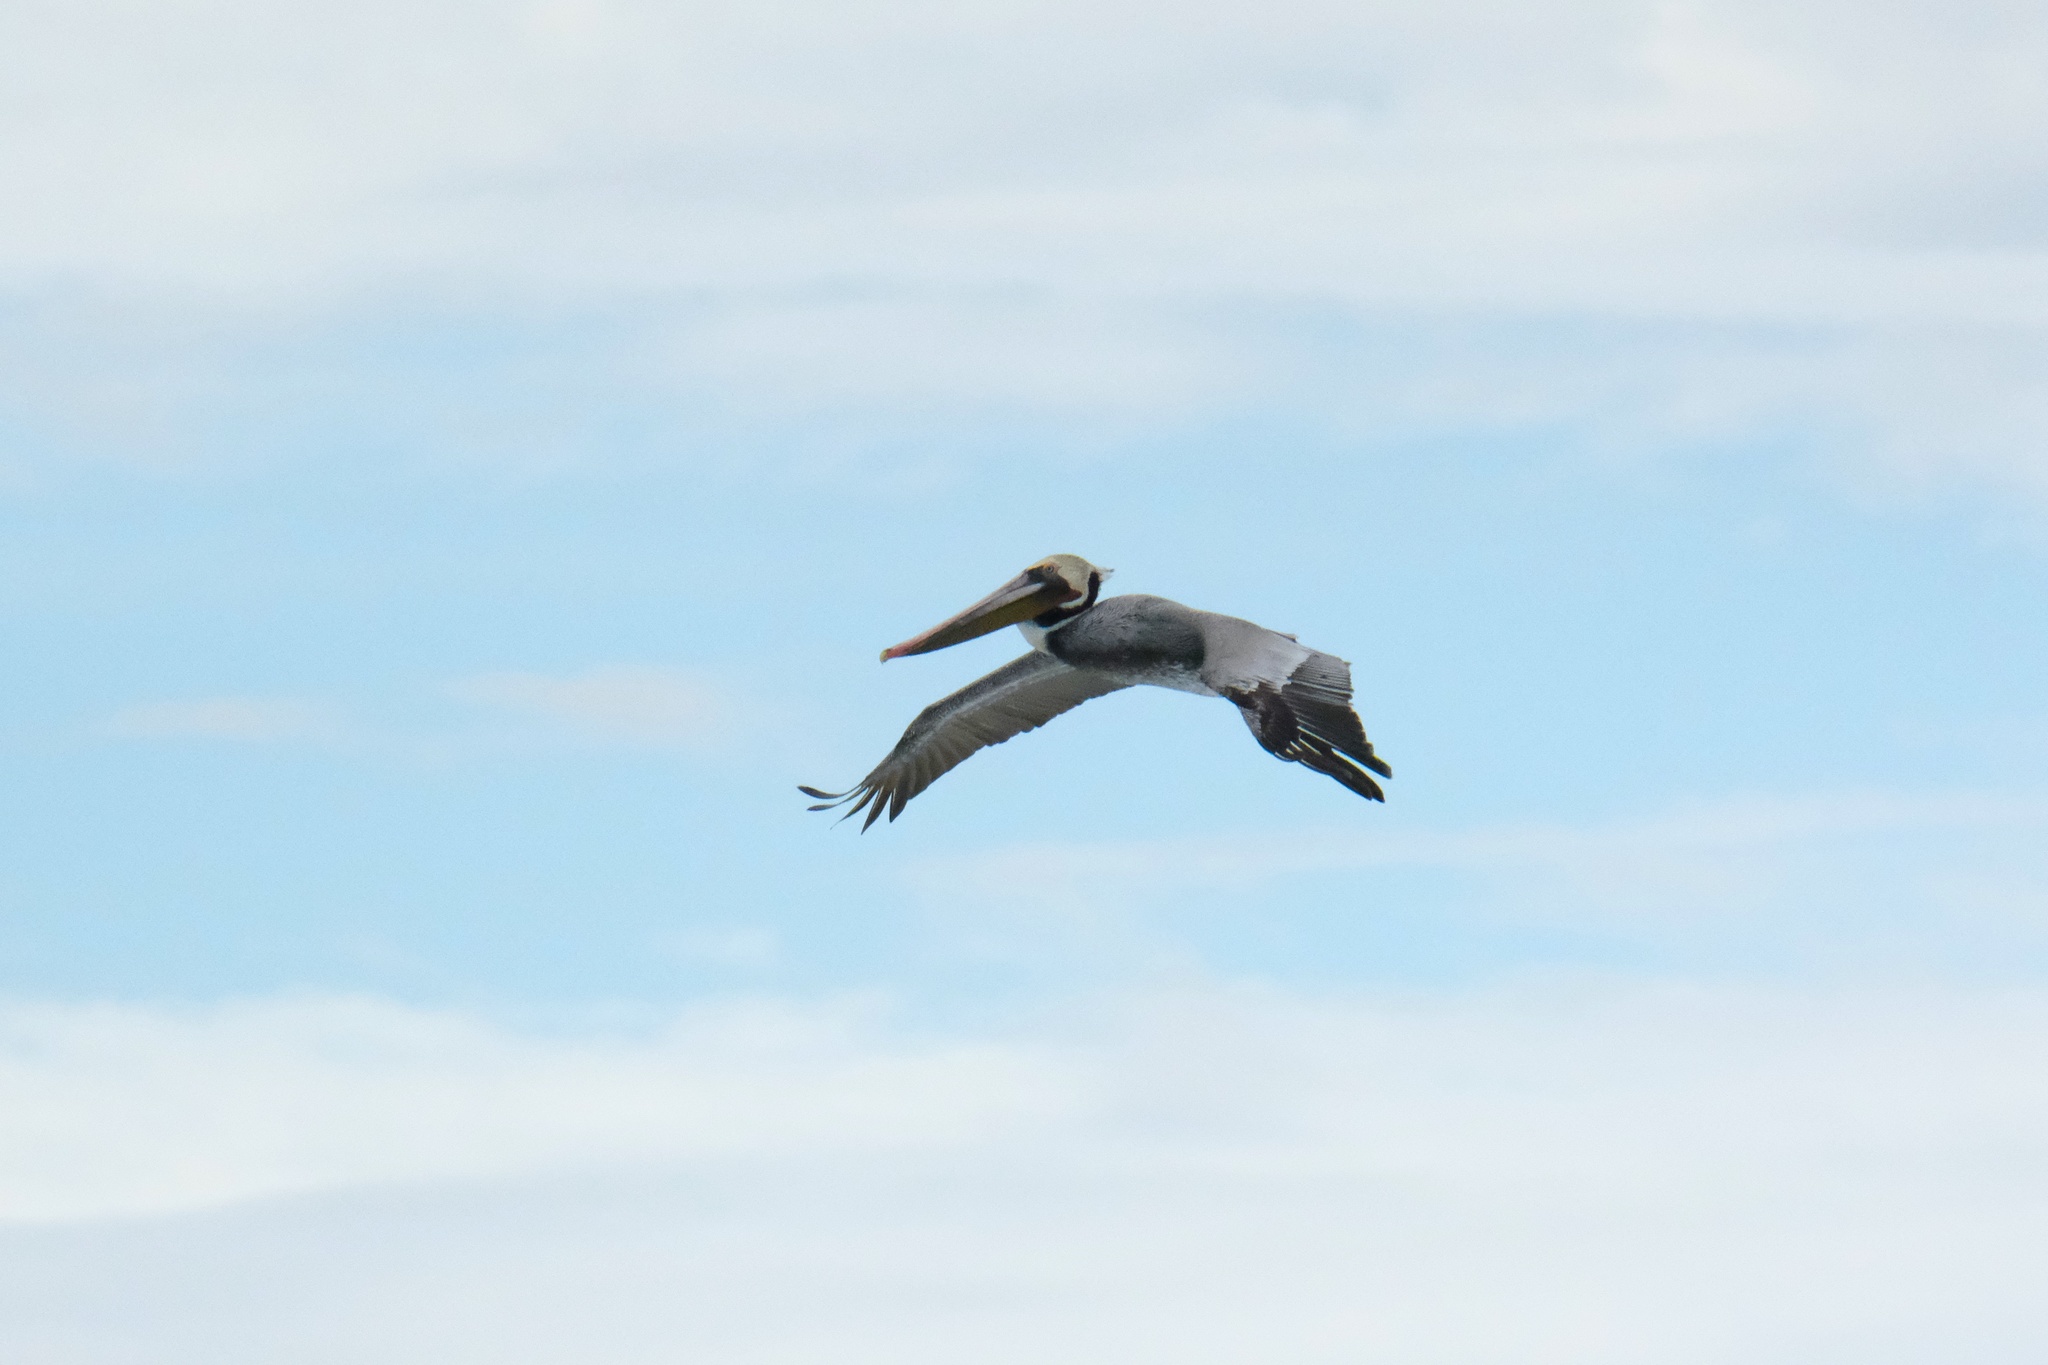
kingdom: Animalia
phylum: Chordata
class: Aves
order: Pelecaniformes
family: Pelecanidae
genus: Pelecanus
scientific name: Pelecanus occidentalis
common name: Brown pelican
